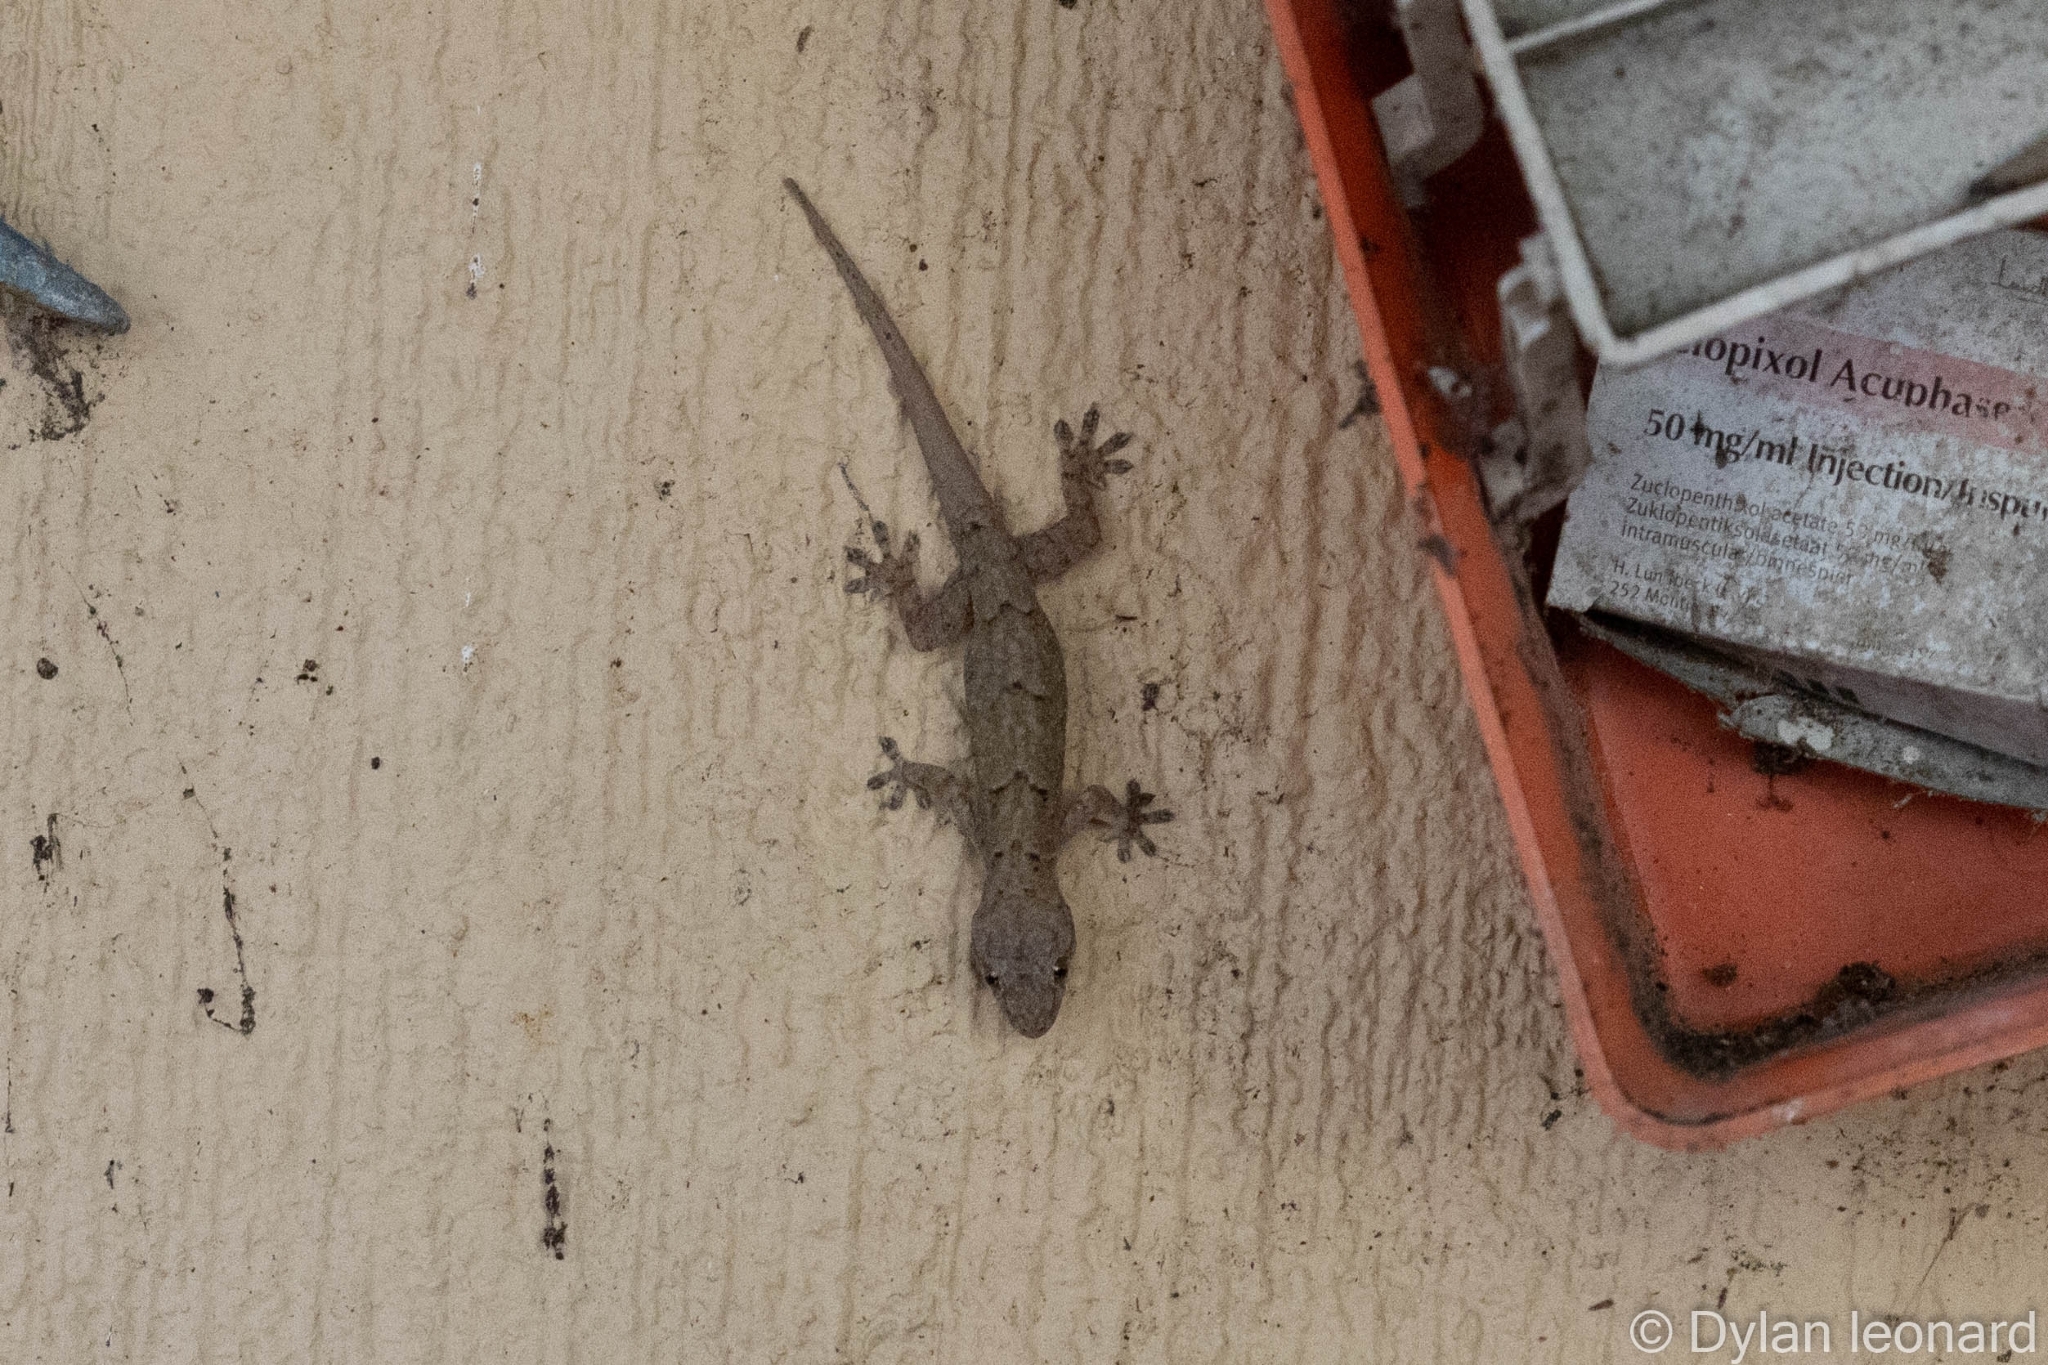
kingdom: Animalia
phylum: Chordata
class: Squamata
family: Gekkonidae
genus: Hemidactylus
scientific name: Hemidactylus mabouia
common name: House gecko
